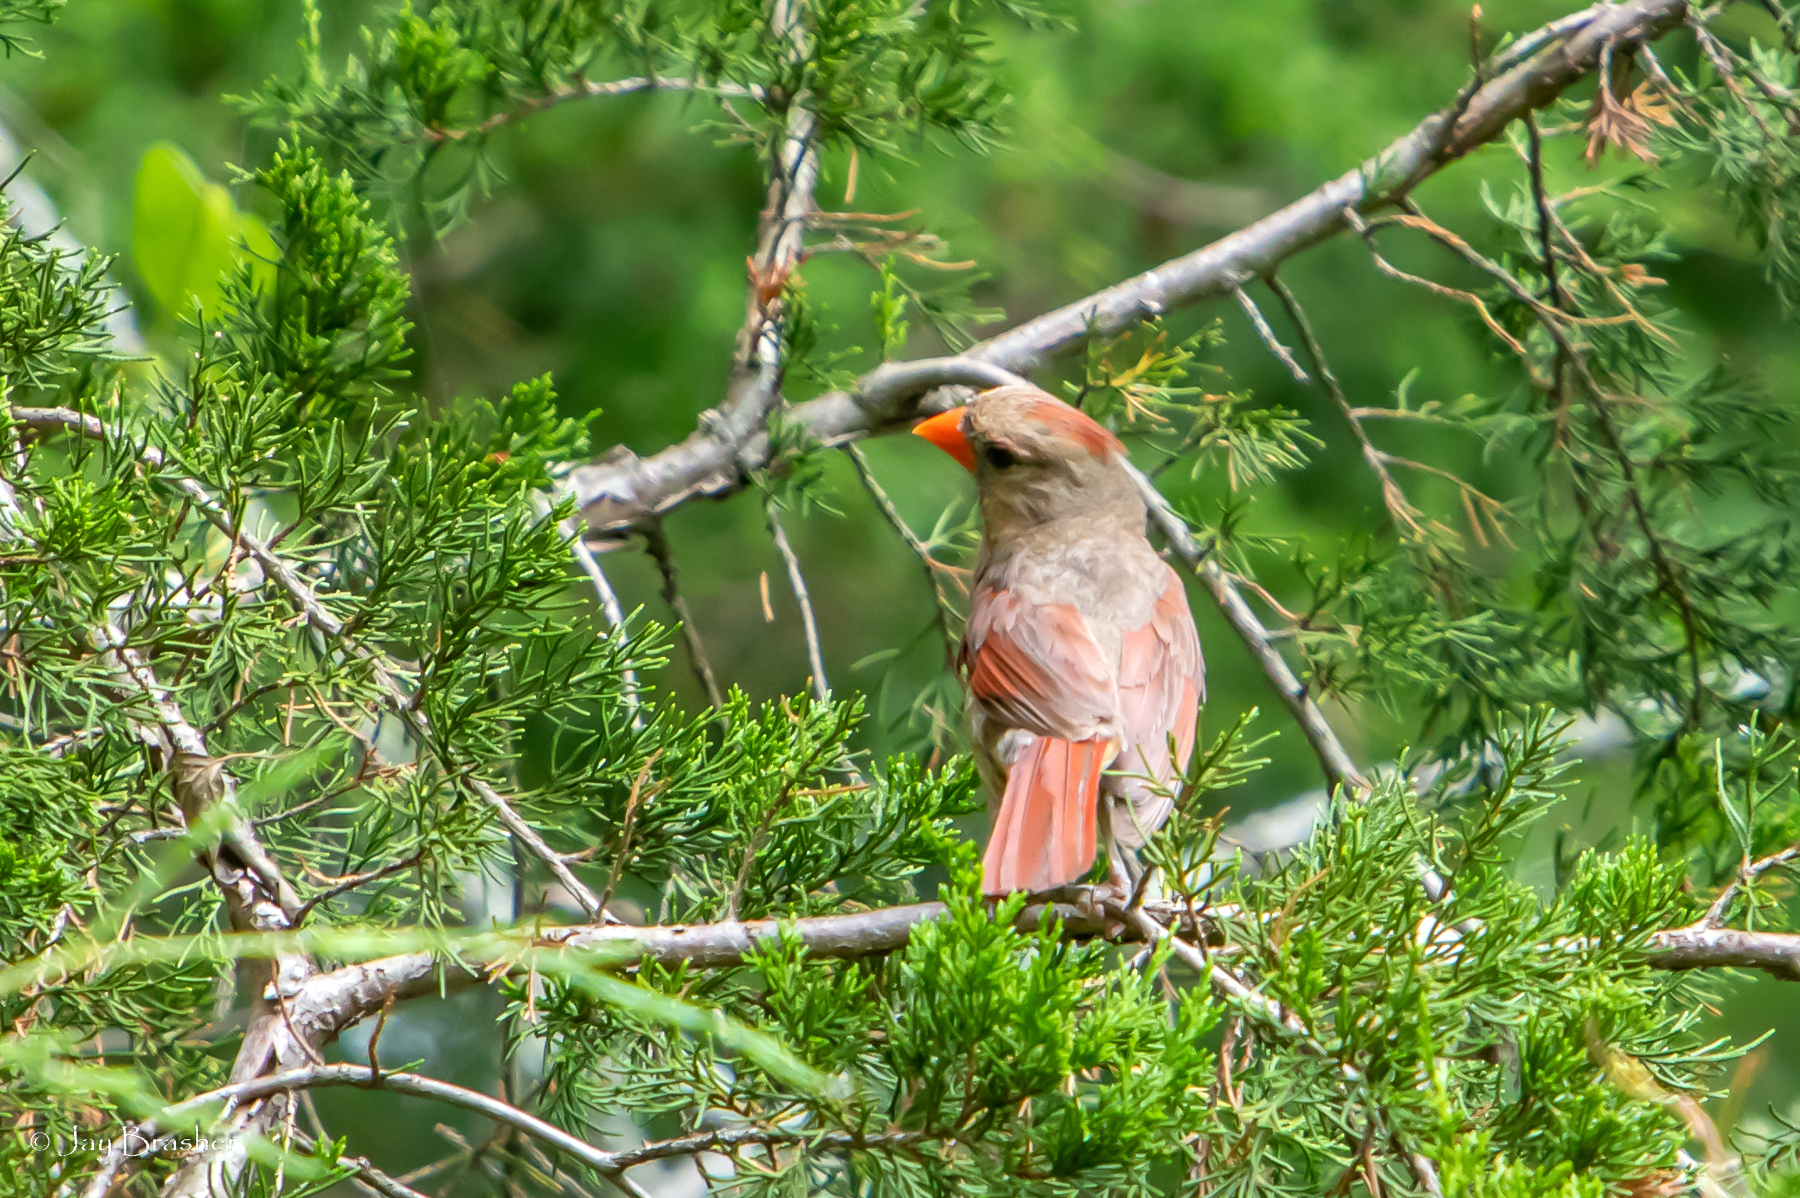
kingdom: Animalia
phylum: Chordata
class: Aves
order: Passeriformes
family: Cardinalidae
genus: Cardinalis
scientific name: Cardinalis cardinalis
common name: Northern cardinal
